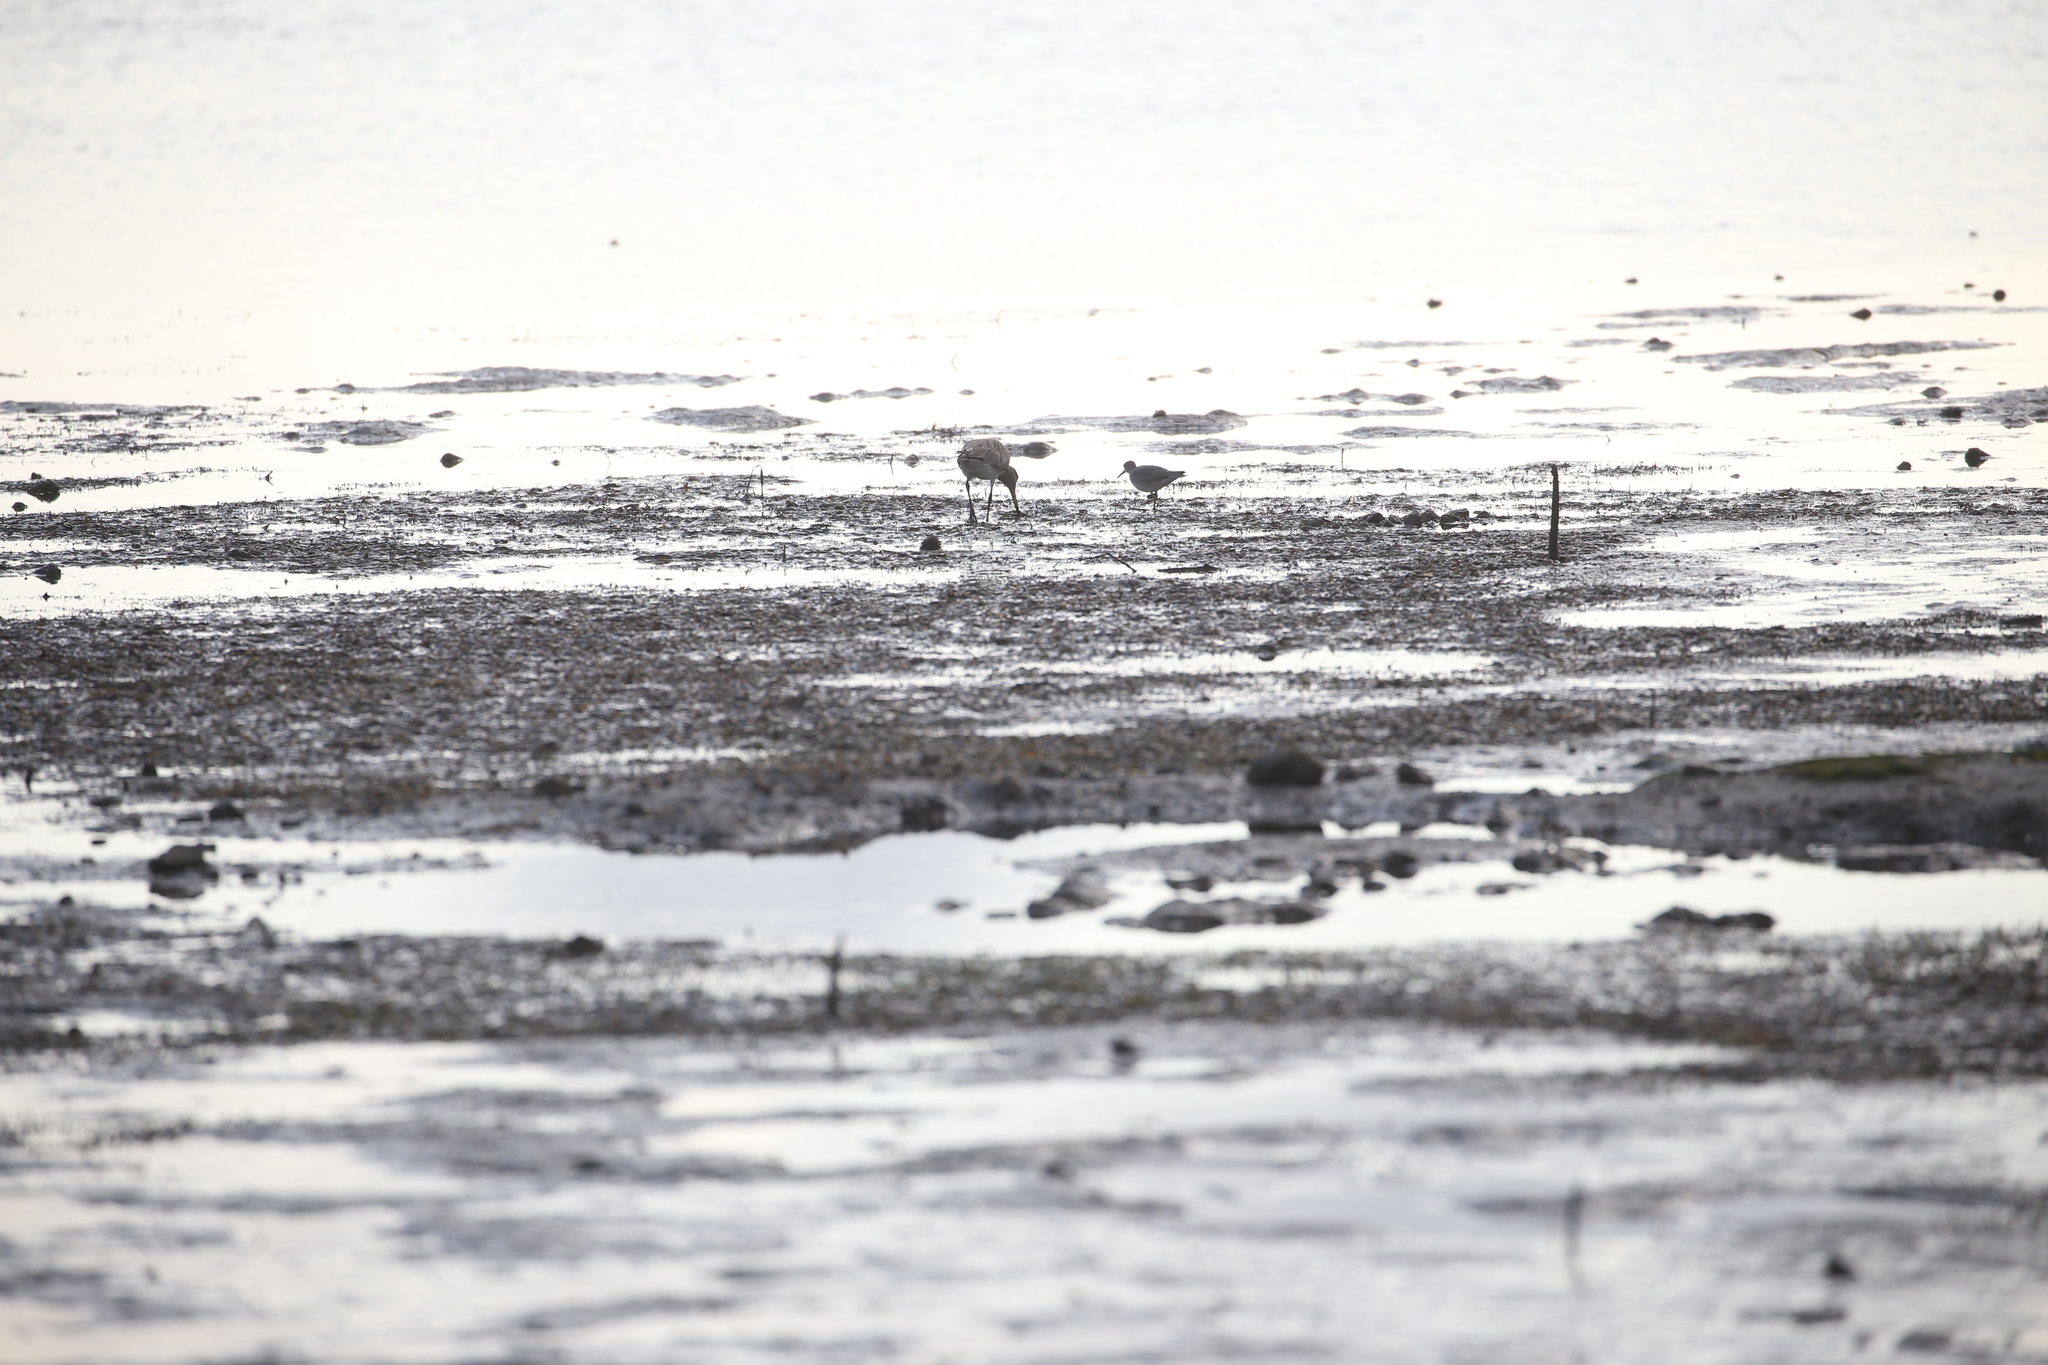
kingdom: Animalia
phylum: Chordata
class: Aves
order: Charadriiformes
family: Scolopacidae
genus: Limosa
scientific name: Limosa lapponica
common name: Bar-tailed godwit
